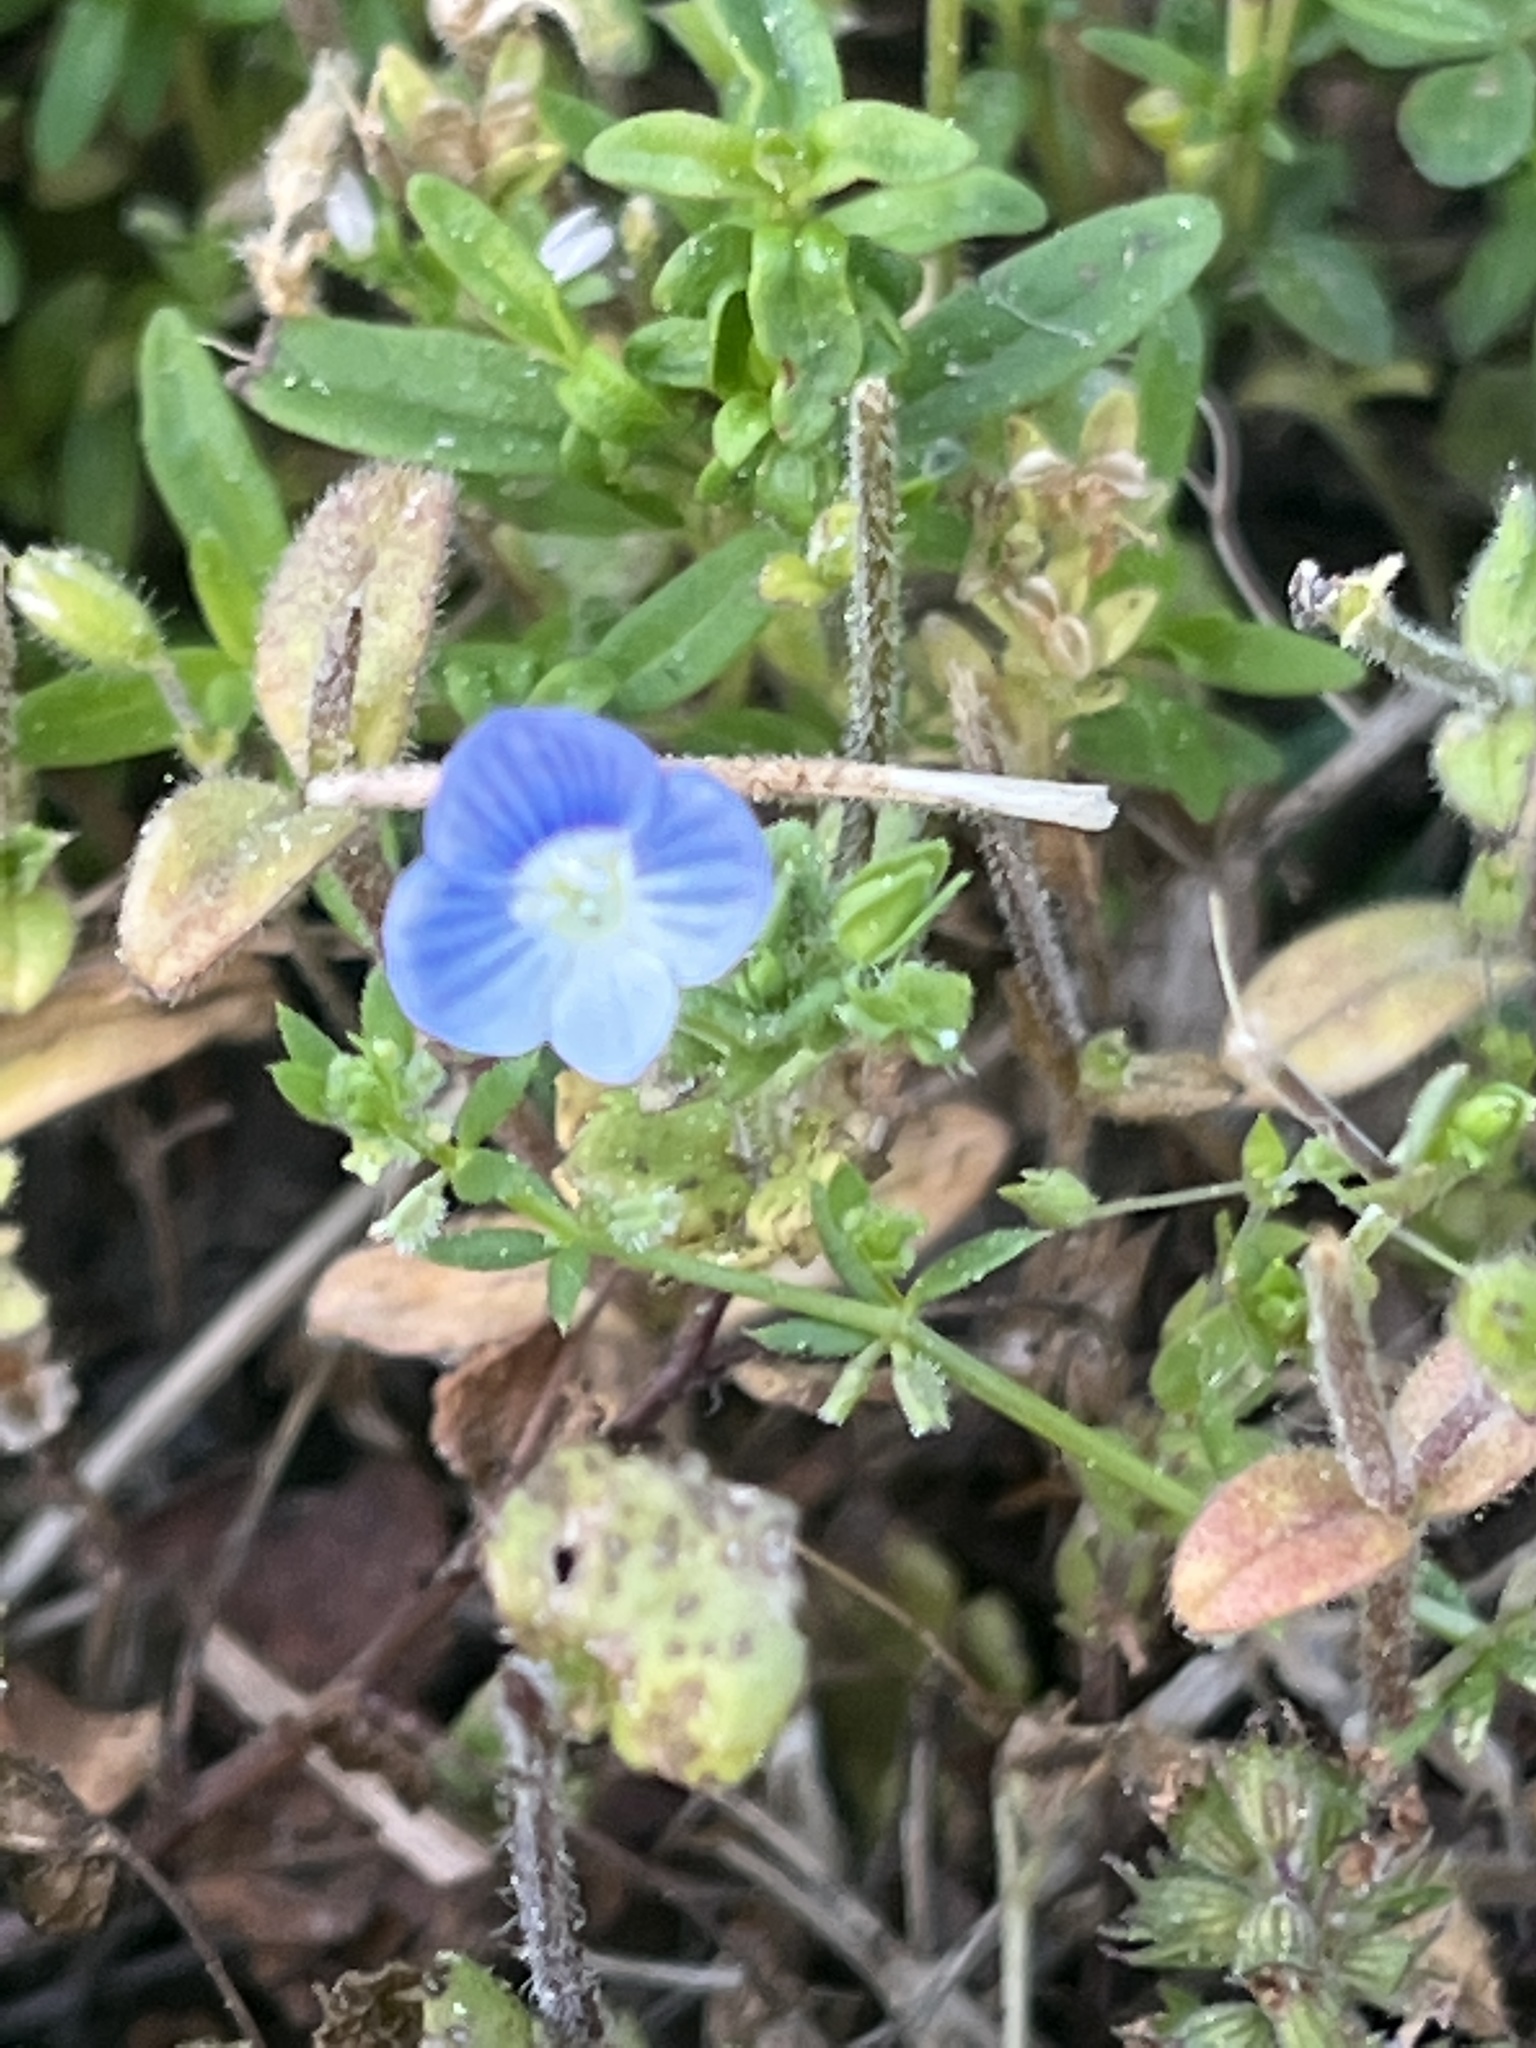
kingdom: Plantae
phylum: Tracheophyta
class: Magnoliopsida
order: Lamiales
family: Plantaginaceae
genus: Veronica
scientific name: Veronica persica
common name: Common field-speedwell
